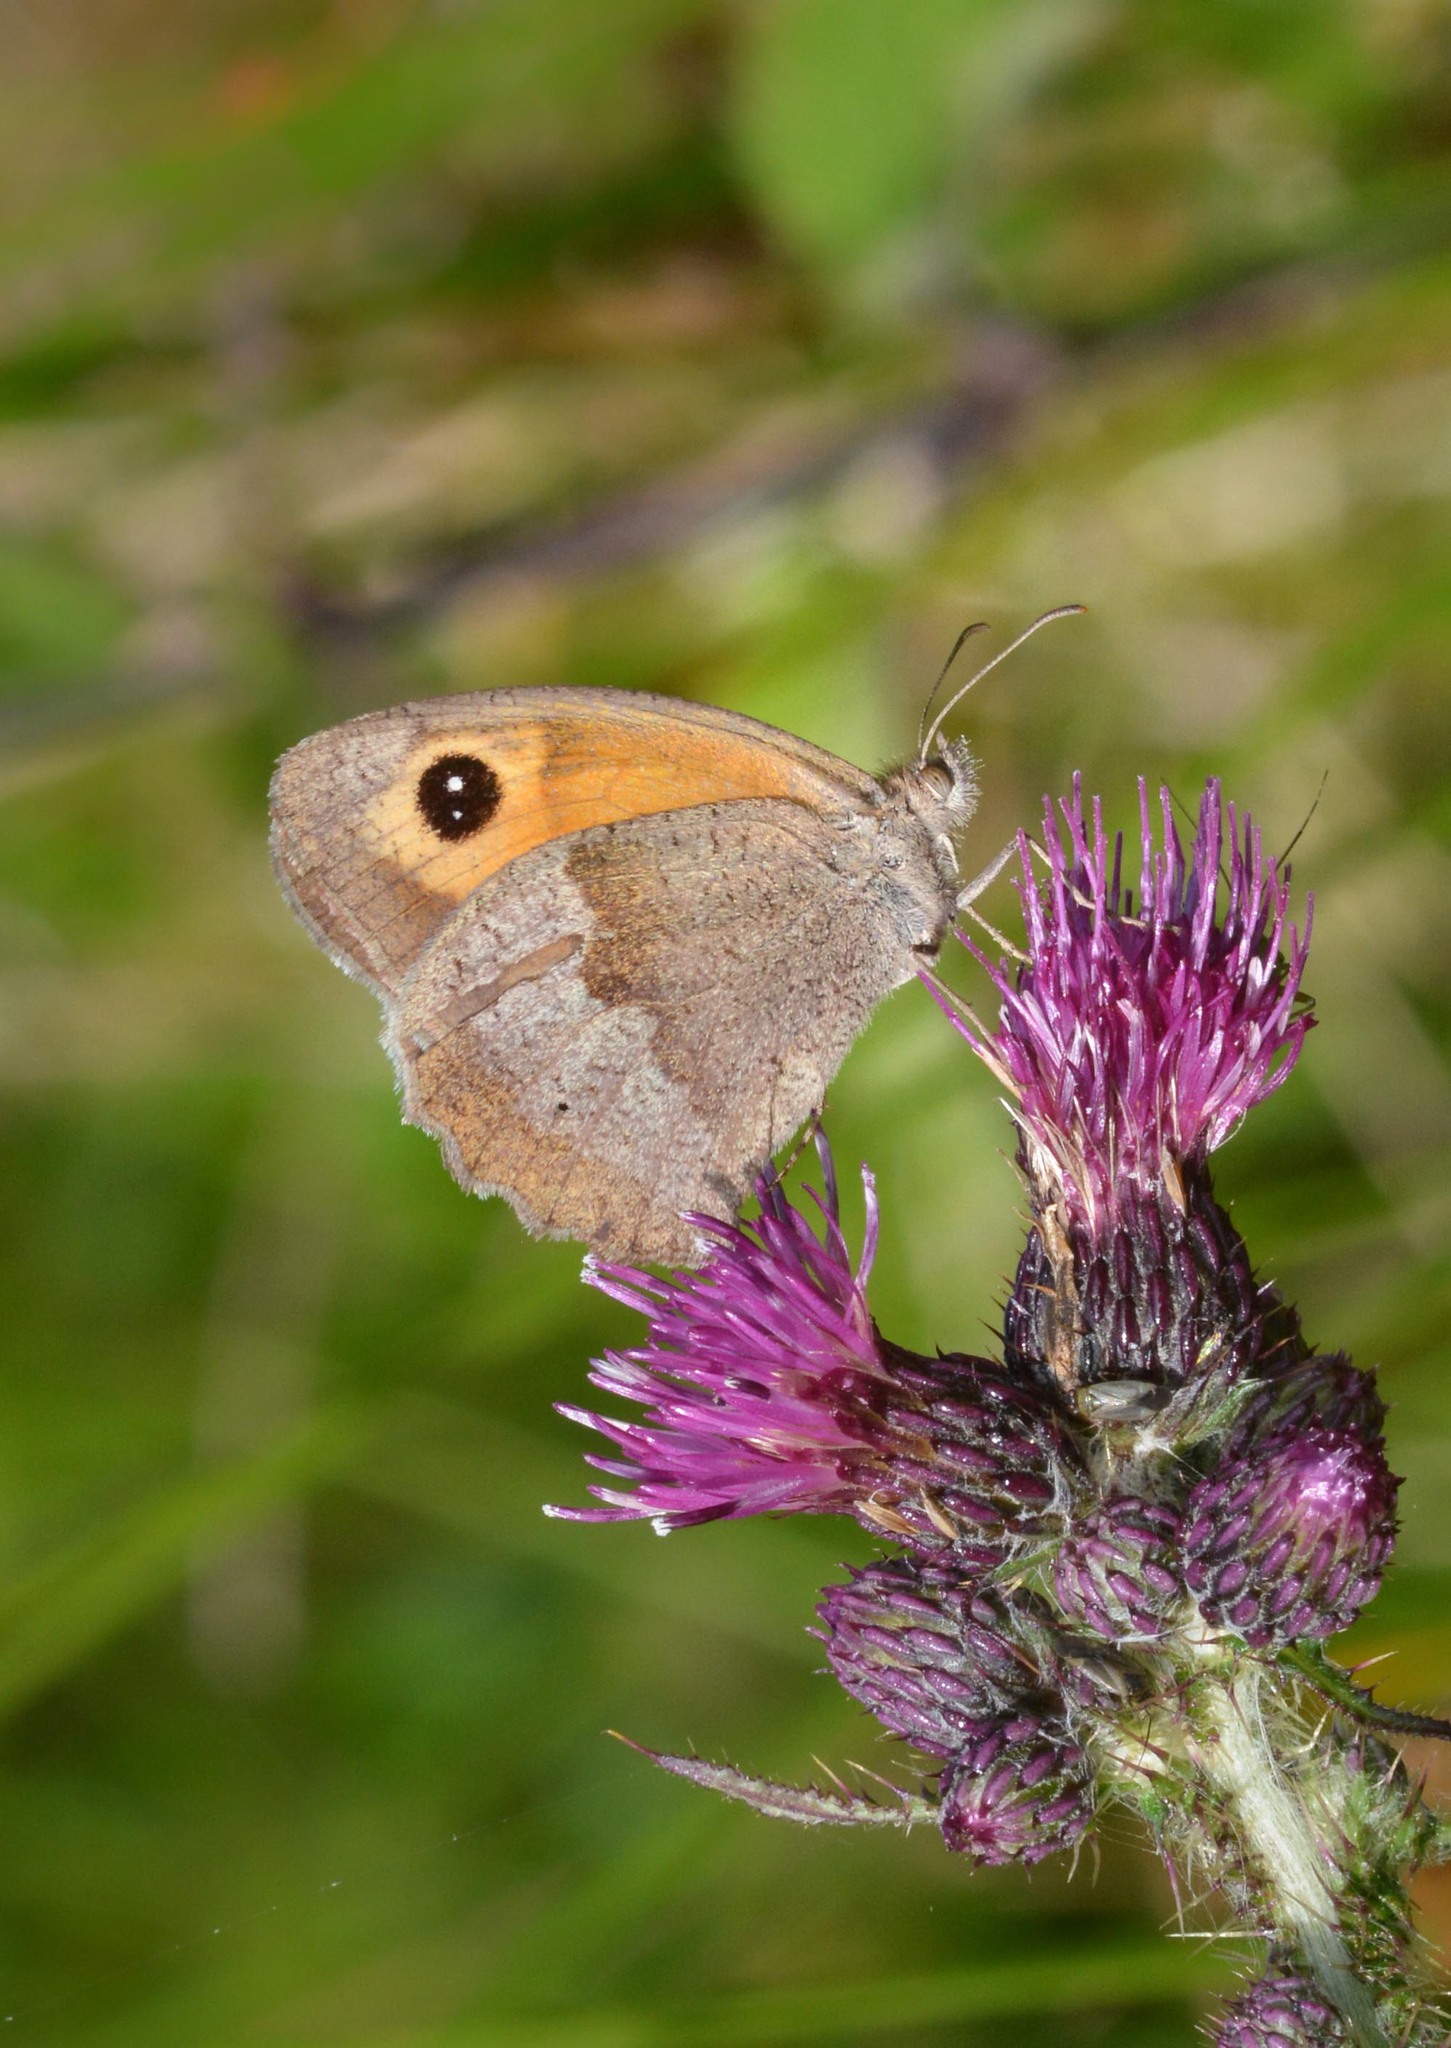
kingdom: Animalia
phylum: Arthropoda
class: Insecta
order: Lepidoptera
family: Nymphalidae
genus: Maniola
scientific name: Maniola jurtina
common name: Meadow brown
